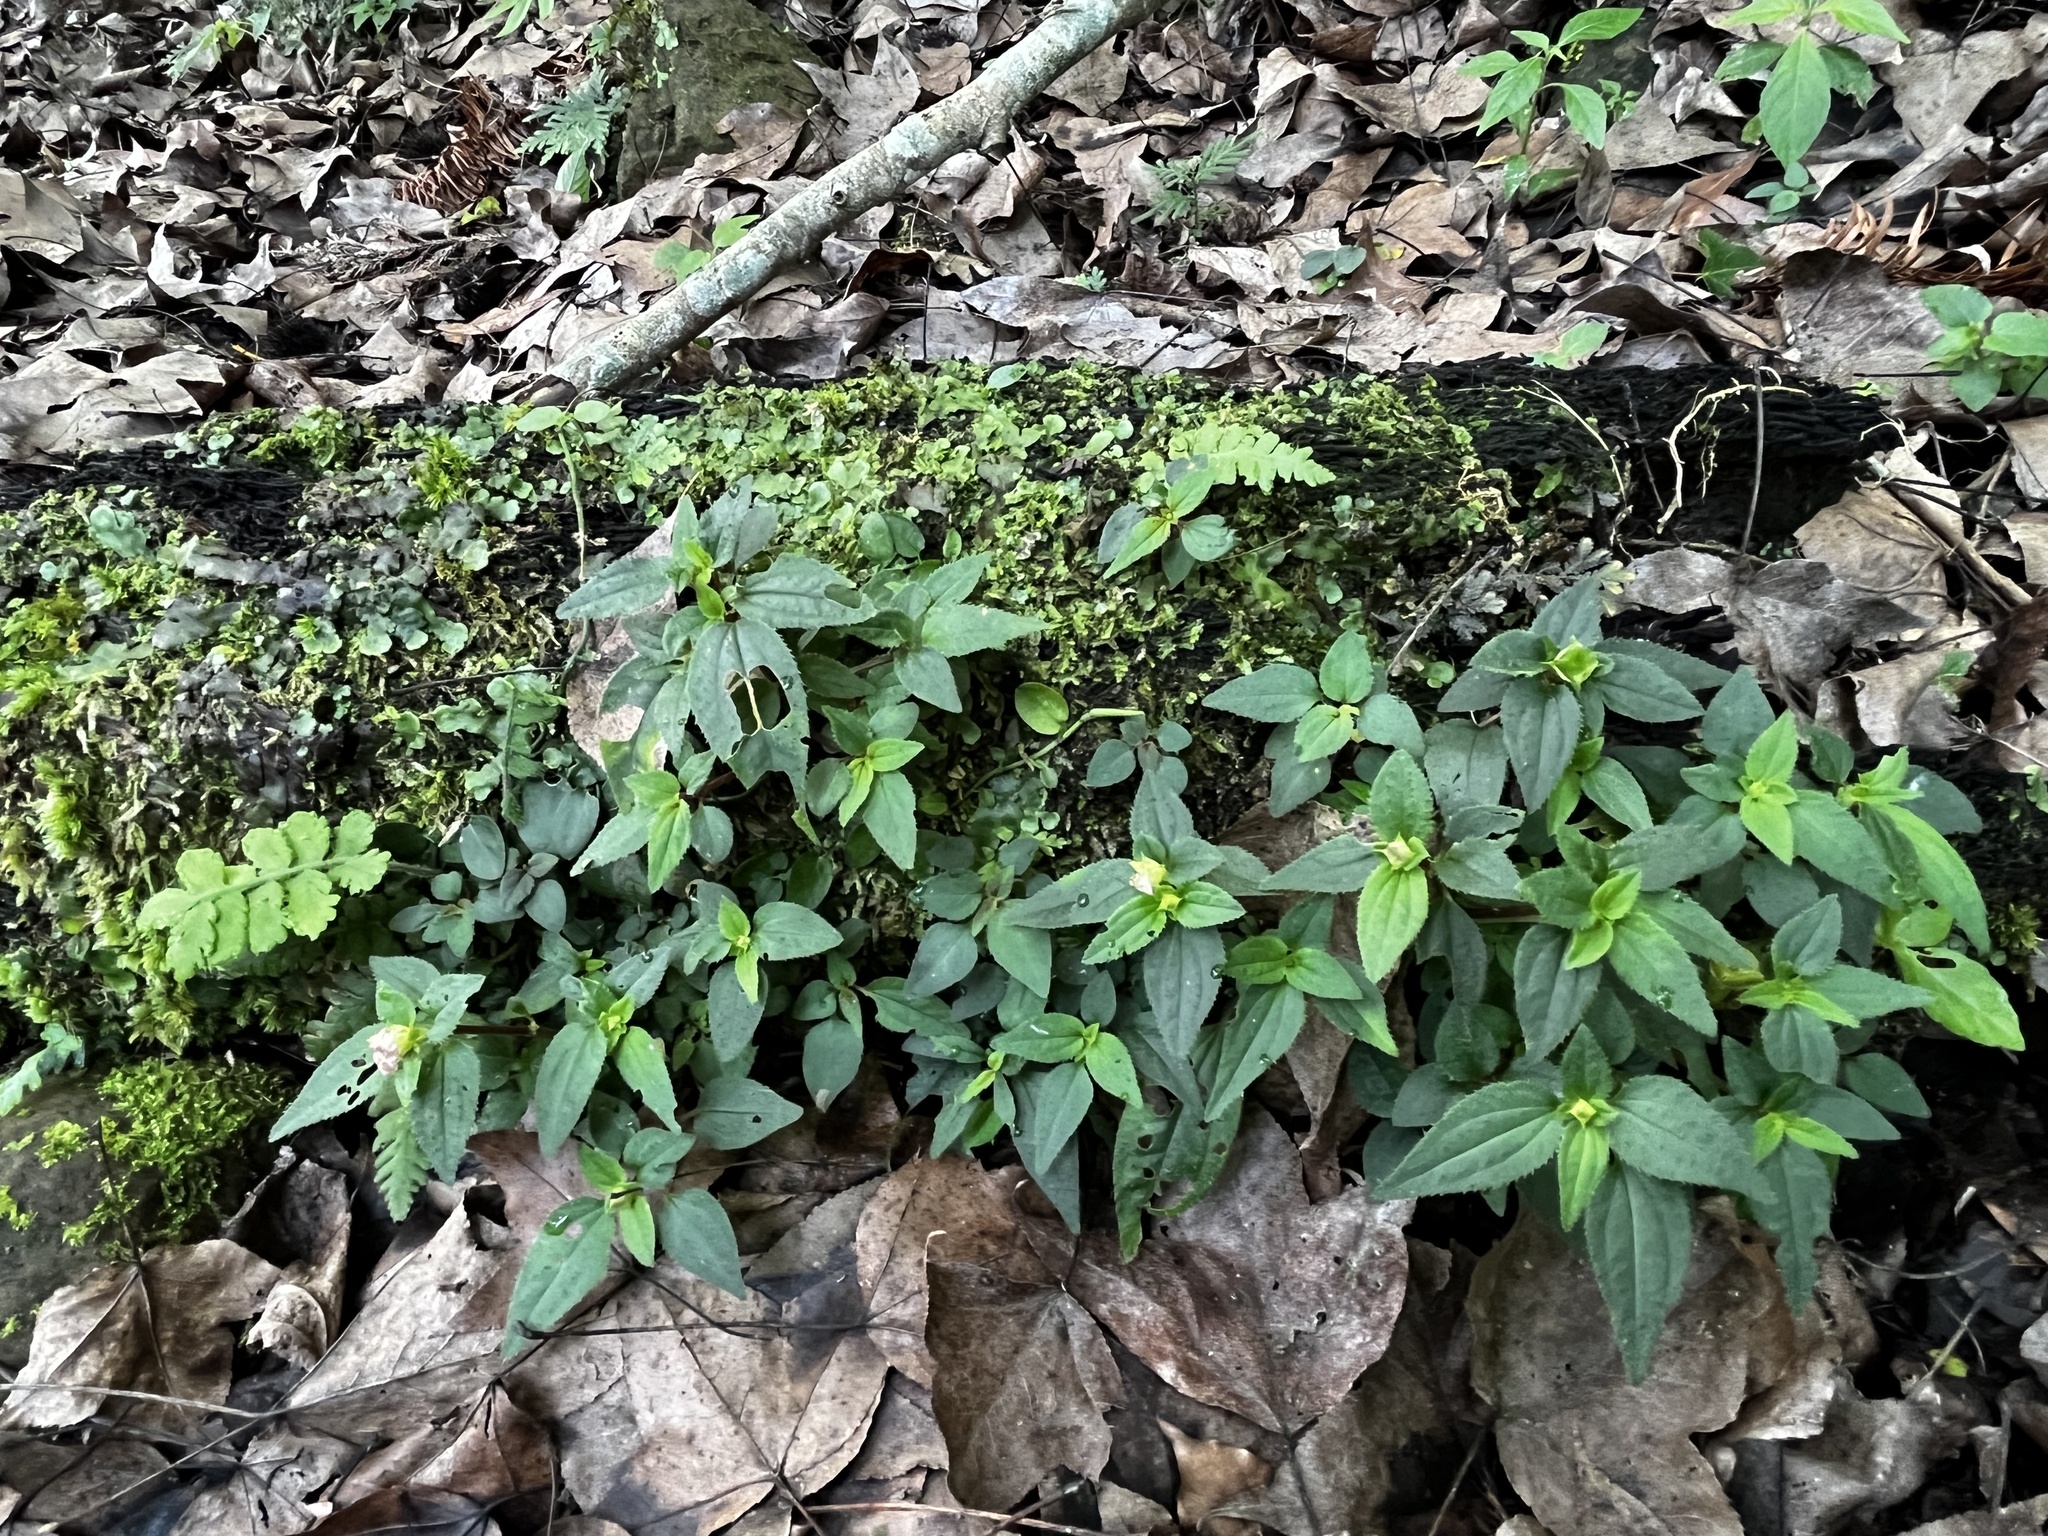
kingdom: Plantae
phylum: Tracheophyta
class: Magnoliopsida
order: Myrtales
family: Melastomataceae
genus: Sarcopyramis
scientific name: Sarcopyramis napalensis
